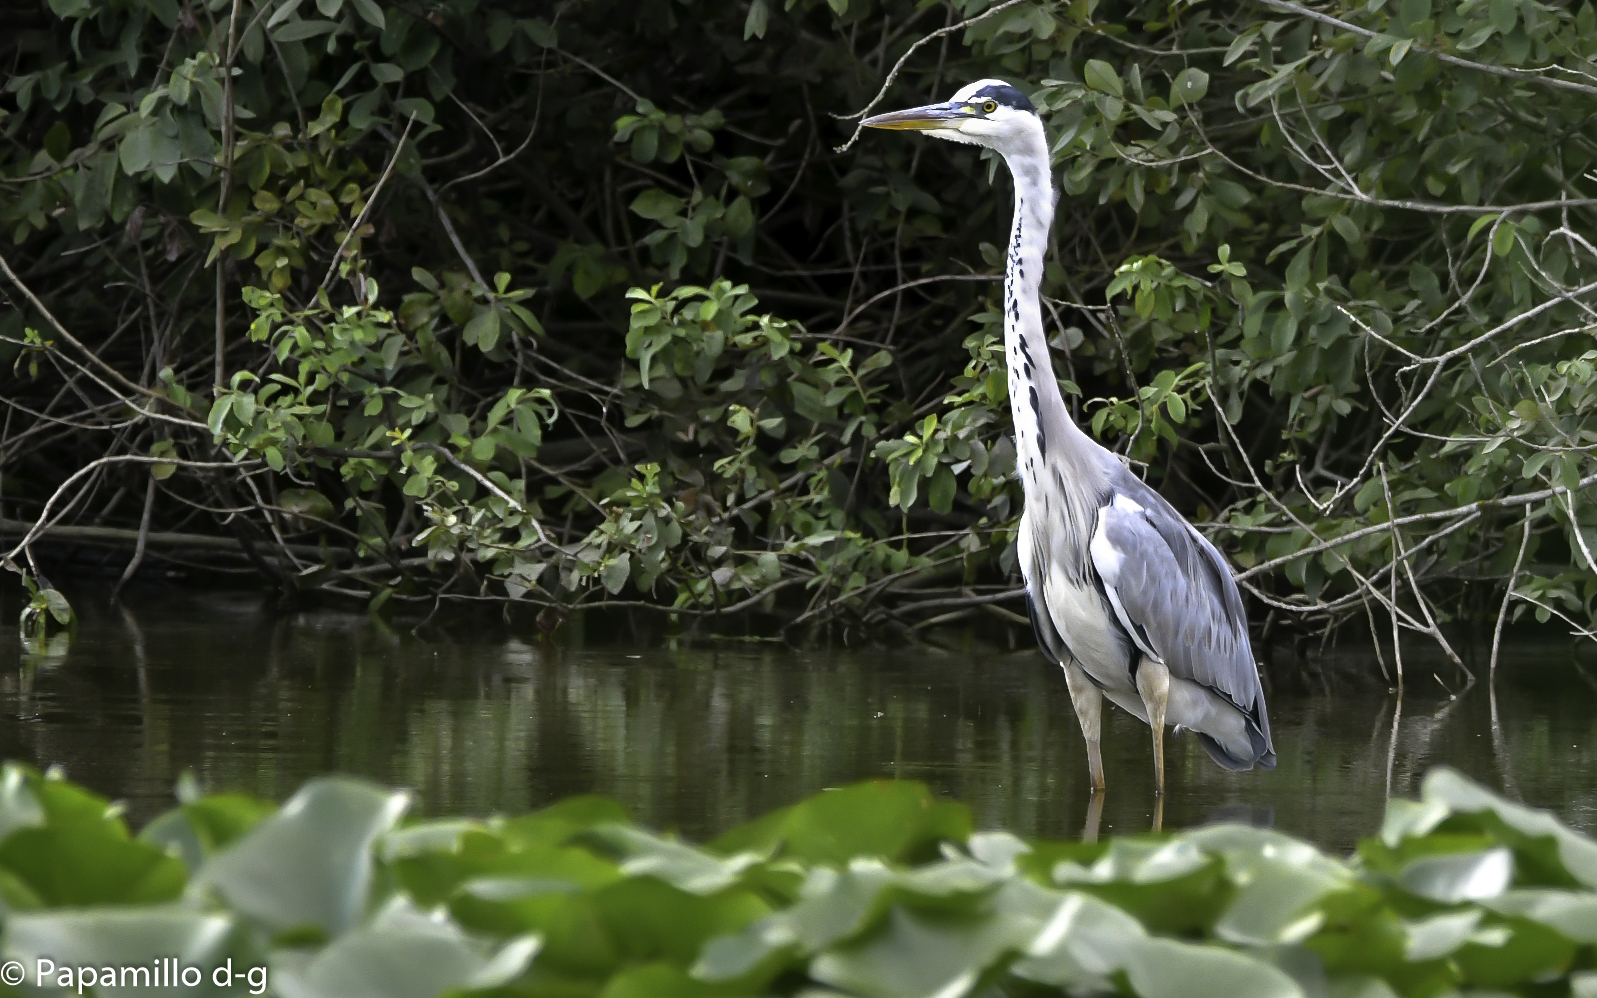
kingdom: Animalia
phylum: Chordata
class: Aves
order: Pelecaniformes
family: Ardeidae
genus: Ardea
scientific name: Ardea cinerea
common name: Grey heron
